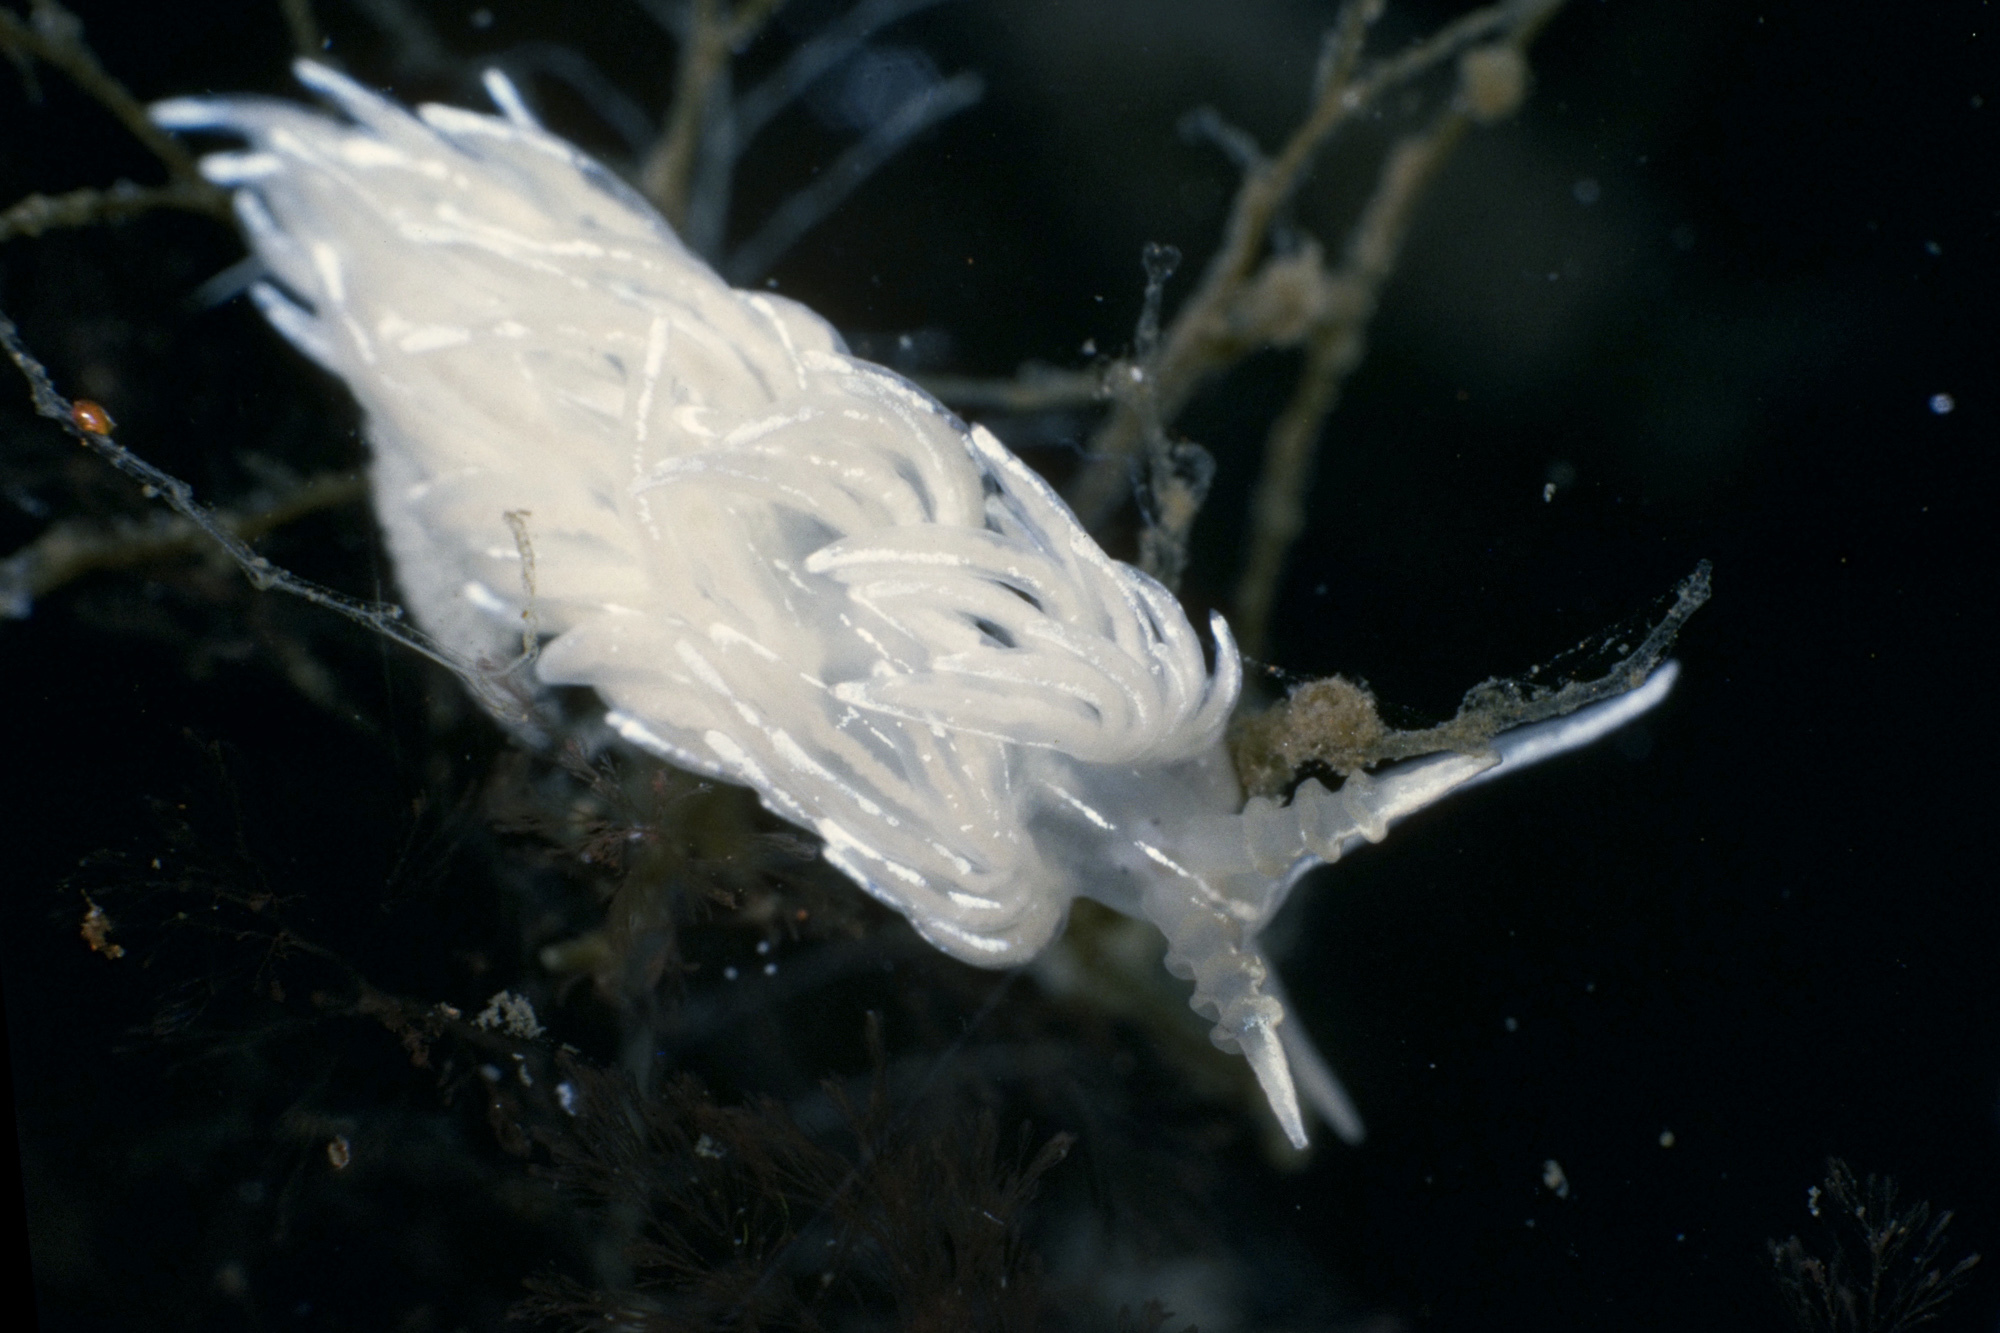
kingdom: Animalia
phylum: Mollusca
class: Gastropoda
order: Nudibranchia
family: Facelinidae
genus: Favorinus
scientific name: Favorinus blianus
